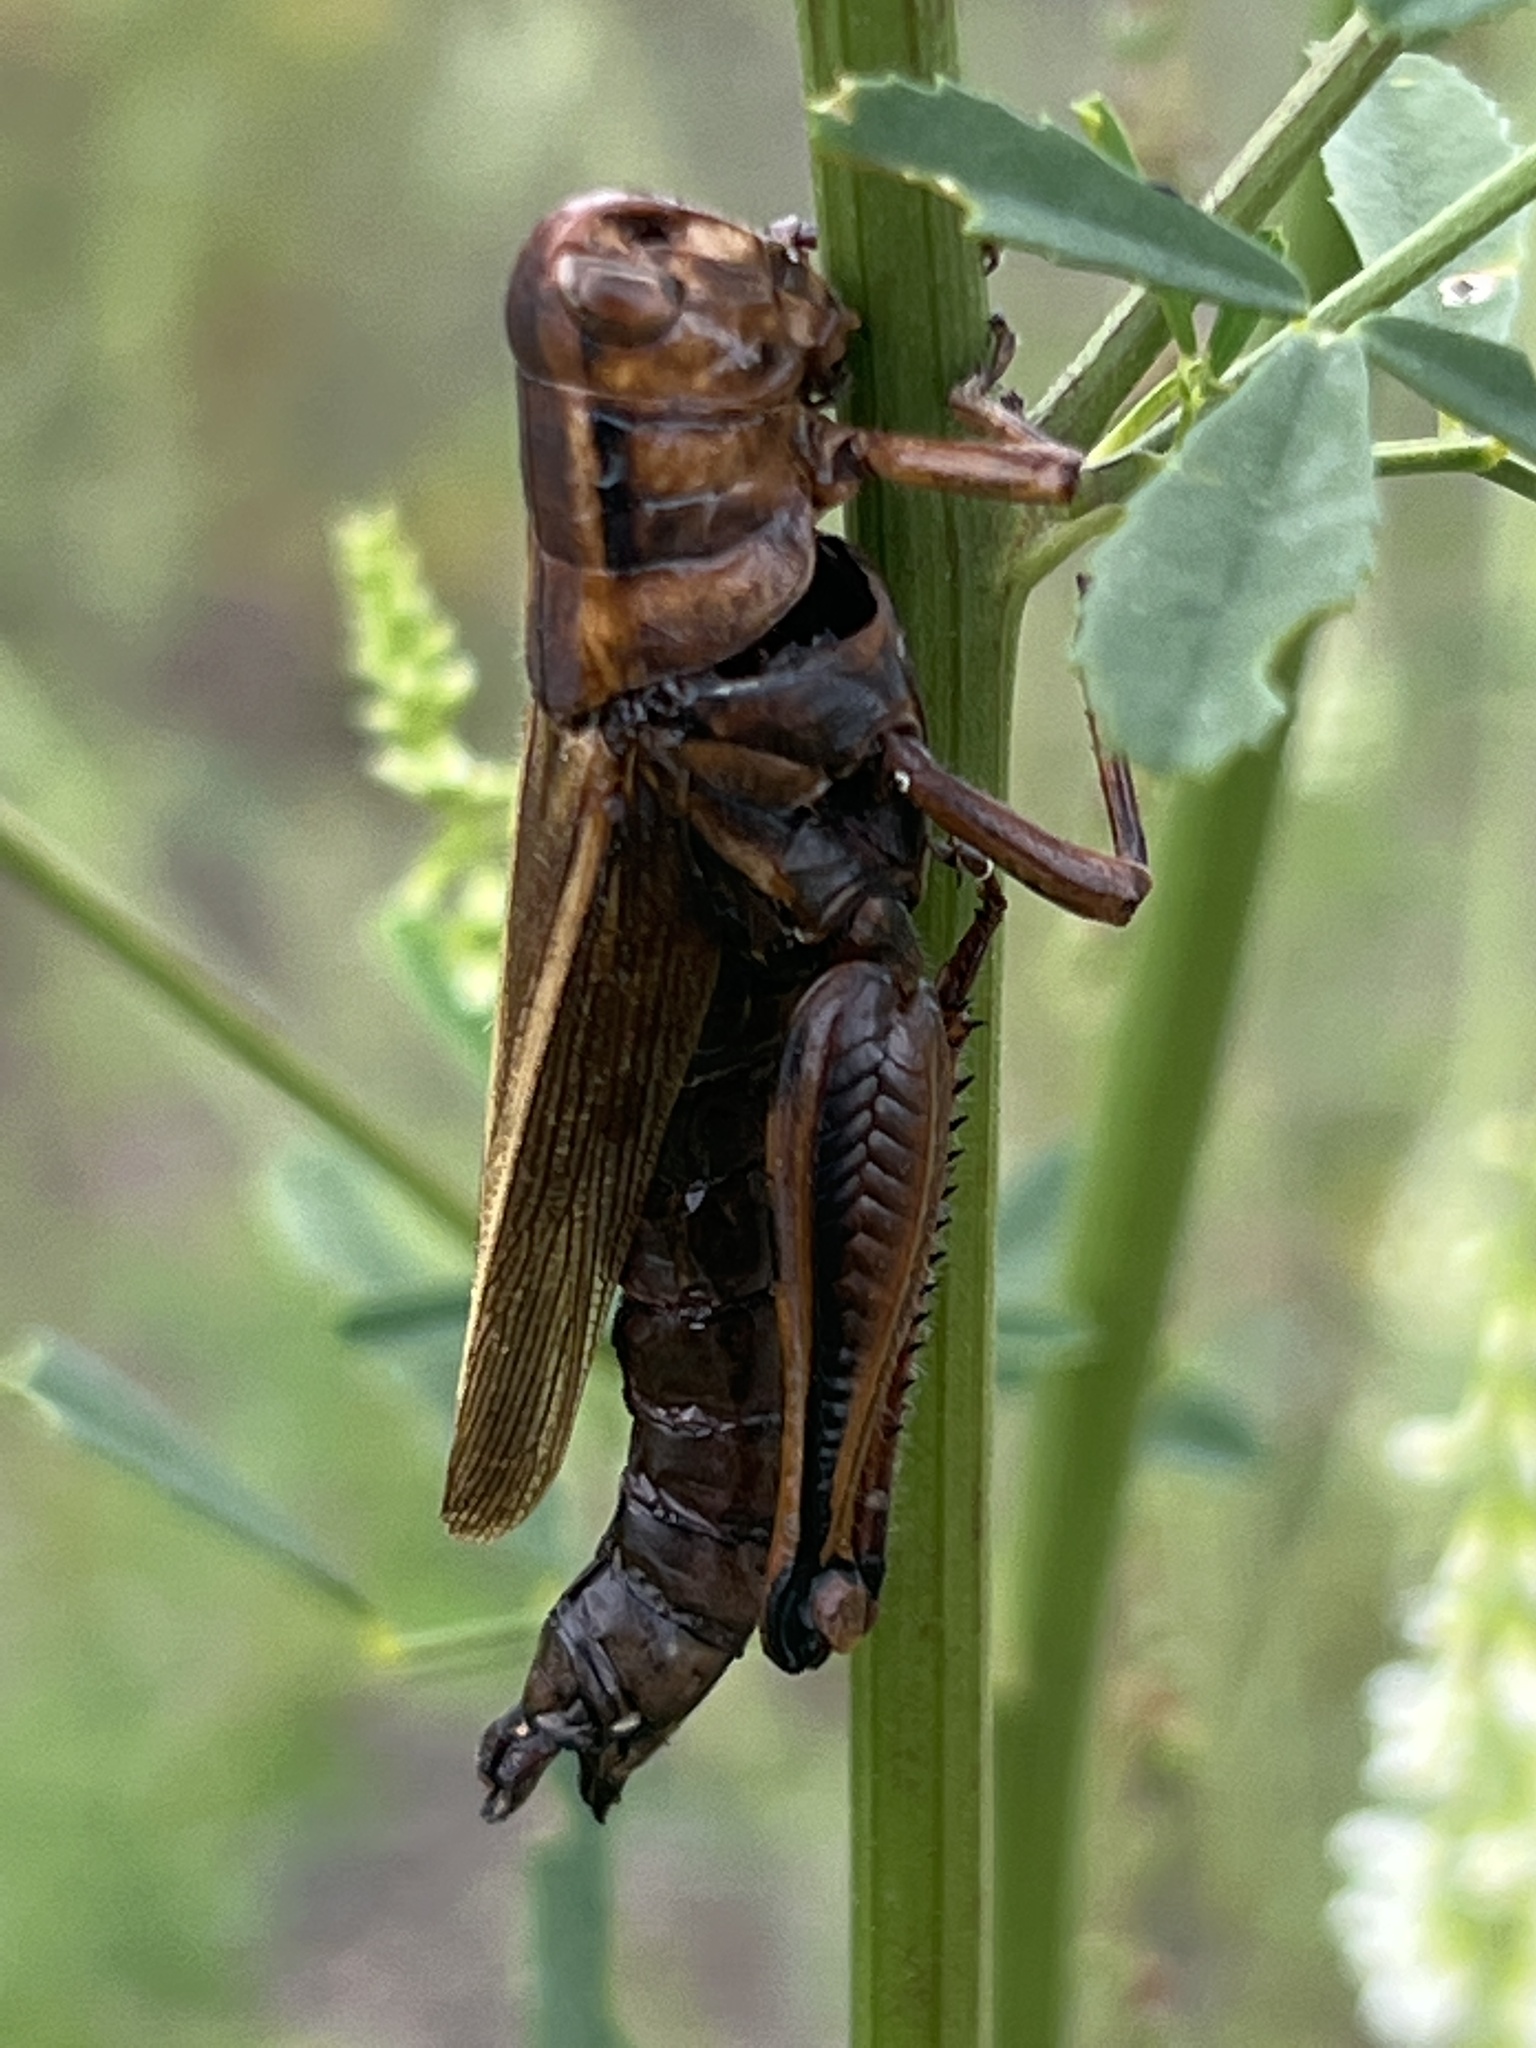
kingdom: Animalia
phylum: Arthropoda
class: Insecta
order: Orthoptera
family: Acrididae
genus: Melanoplus
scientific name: Melanoplus bivittatus
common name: Two-striped grasshopper
